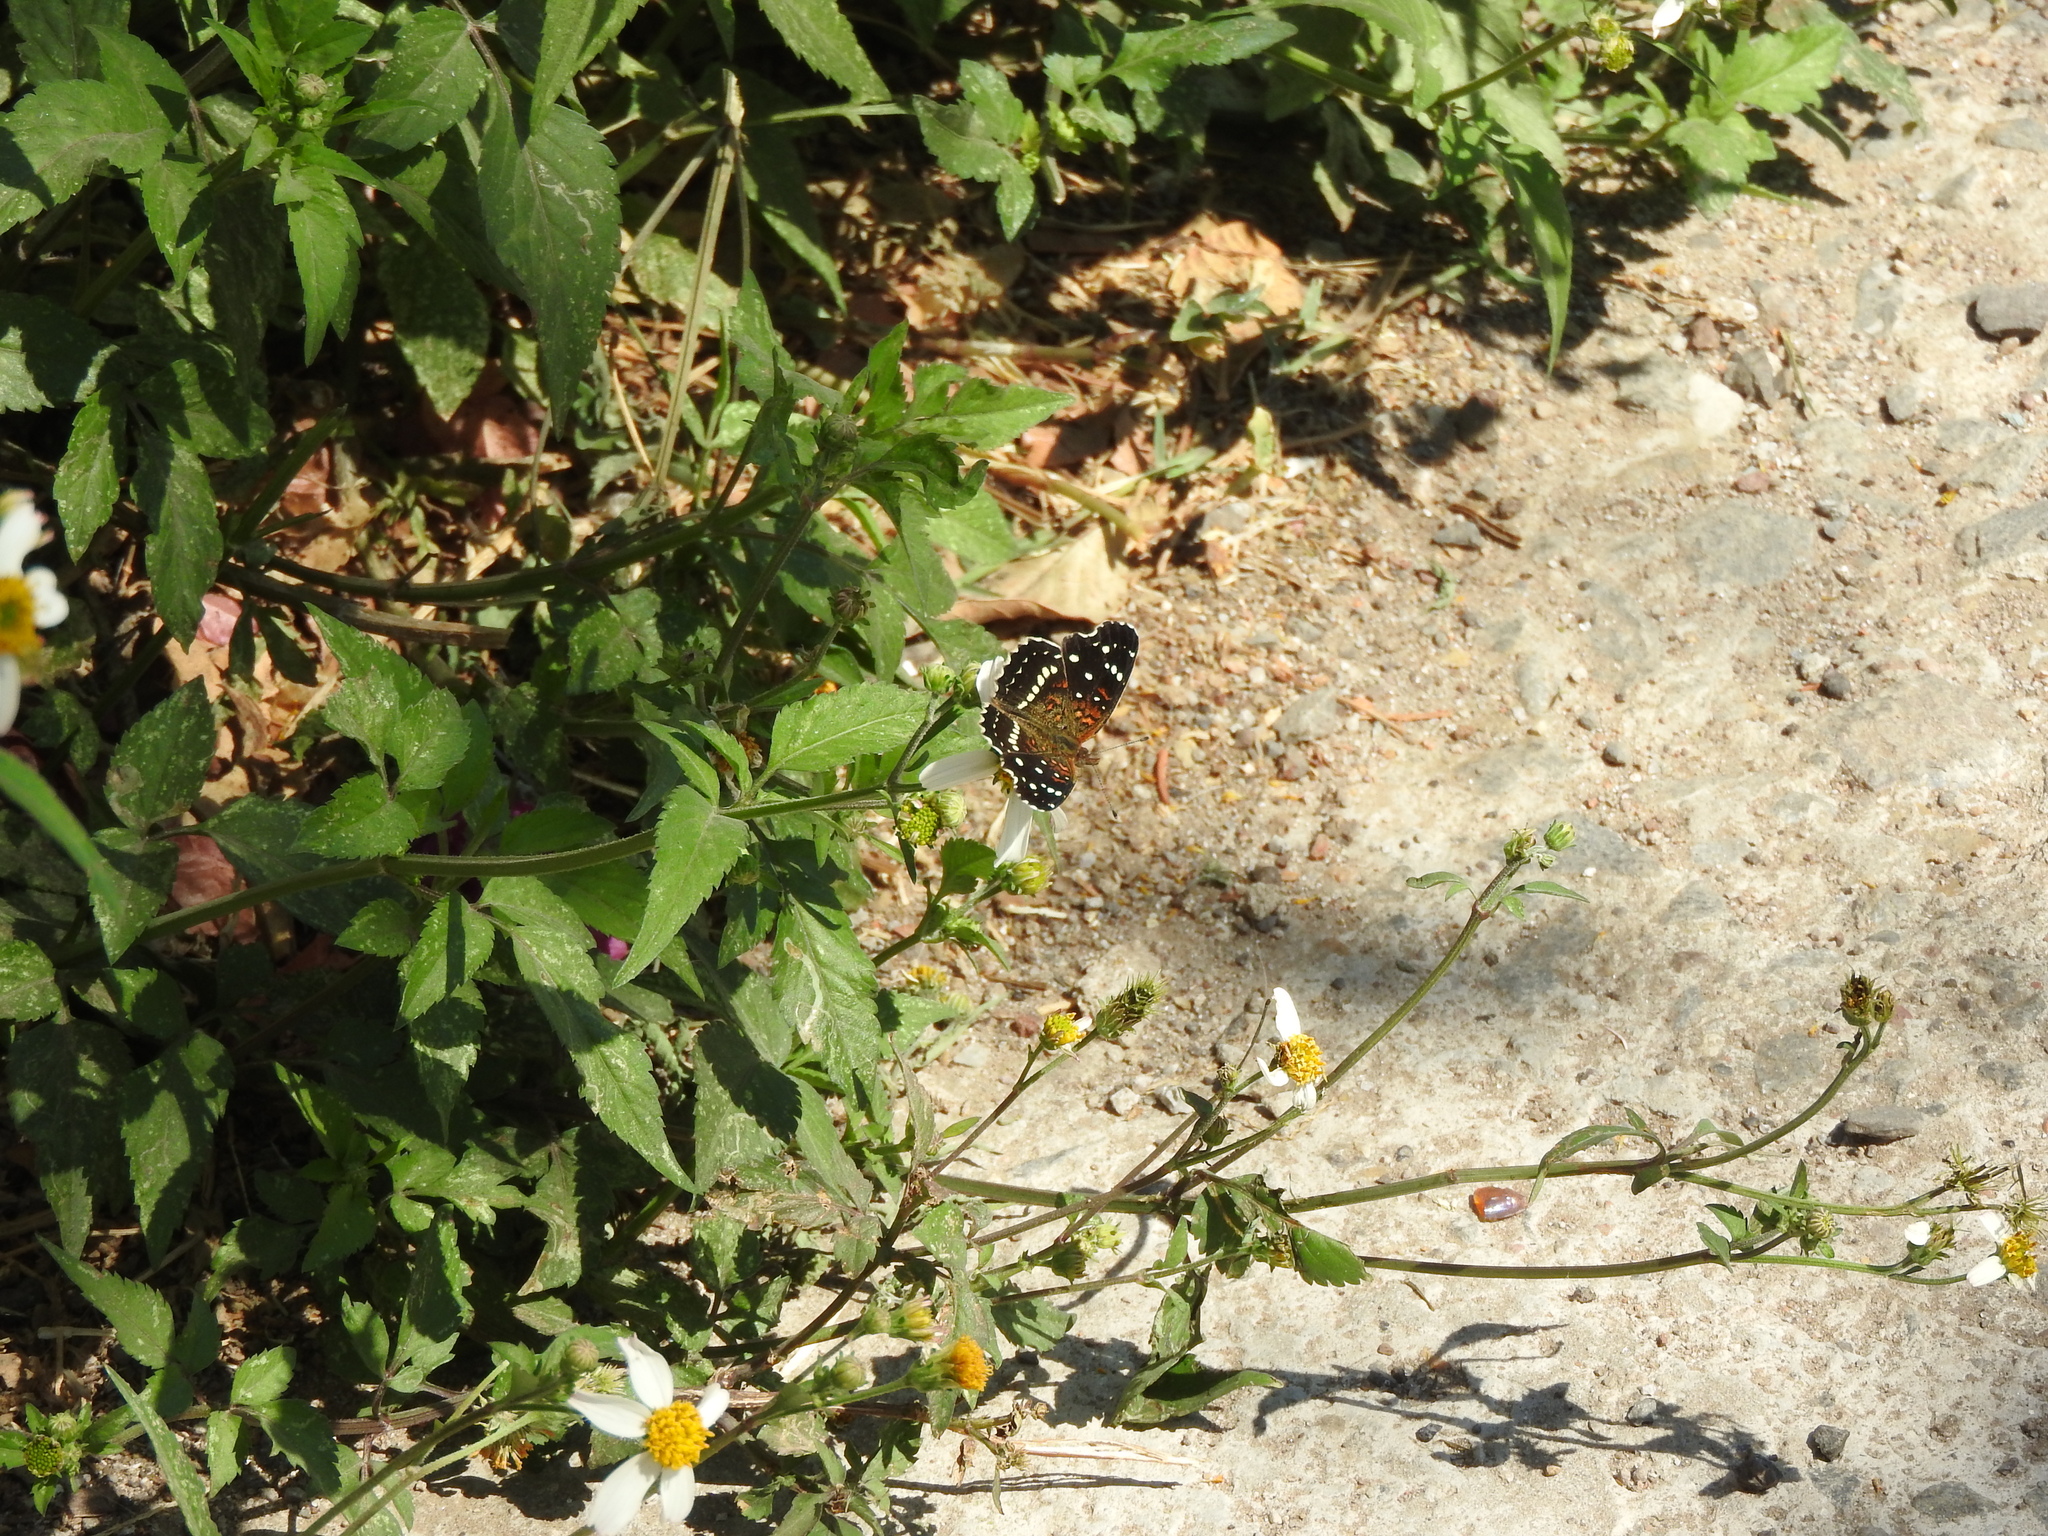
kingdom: Animalia
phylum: Arthropoda
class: Insecta
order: Lepidoptera
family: Nymphalidae
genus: Anthanassa
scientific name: Anthanassa texana
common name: Texan crescent
